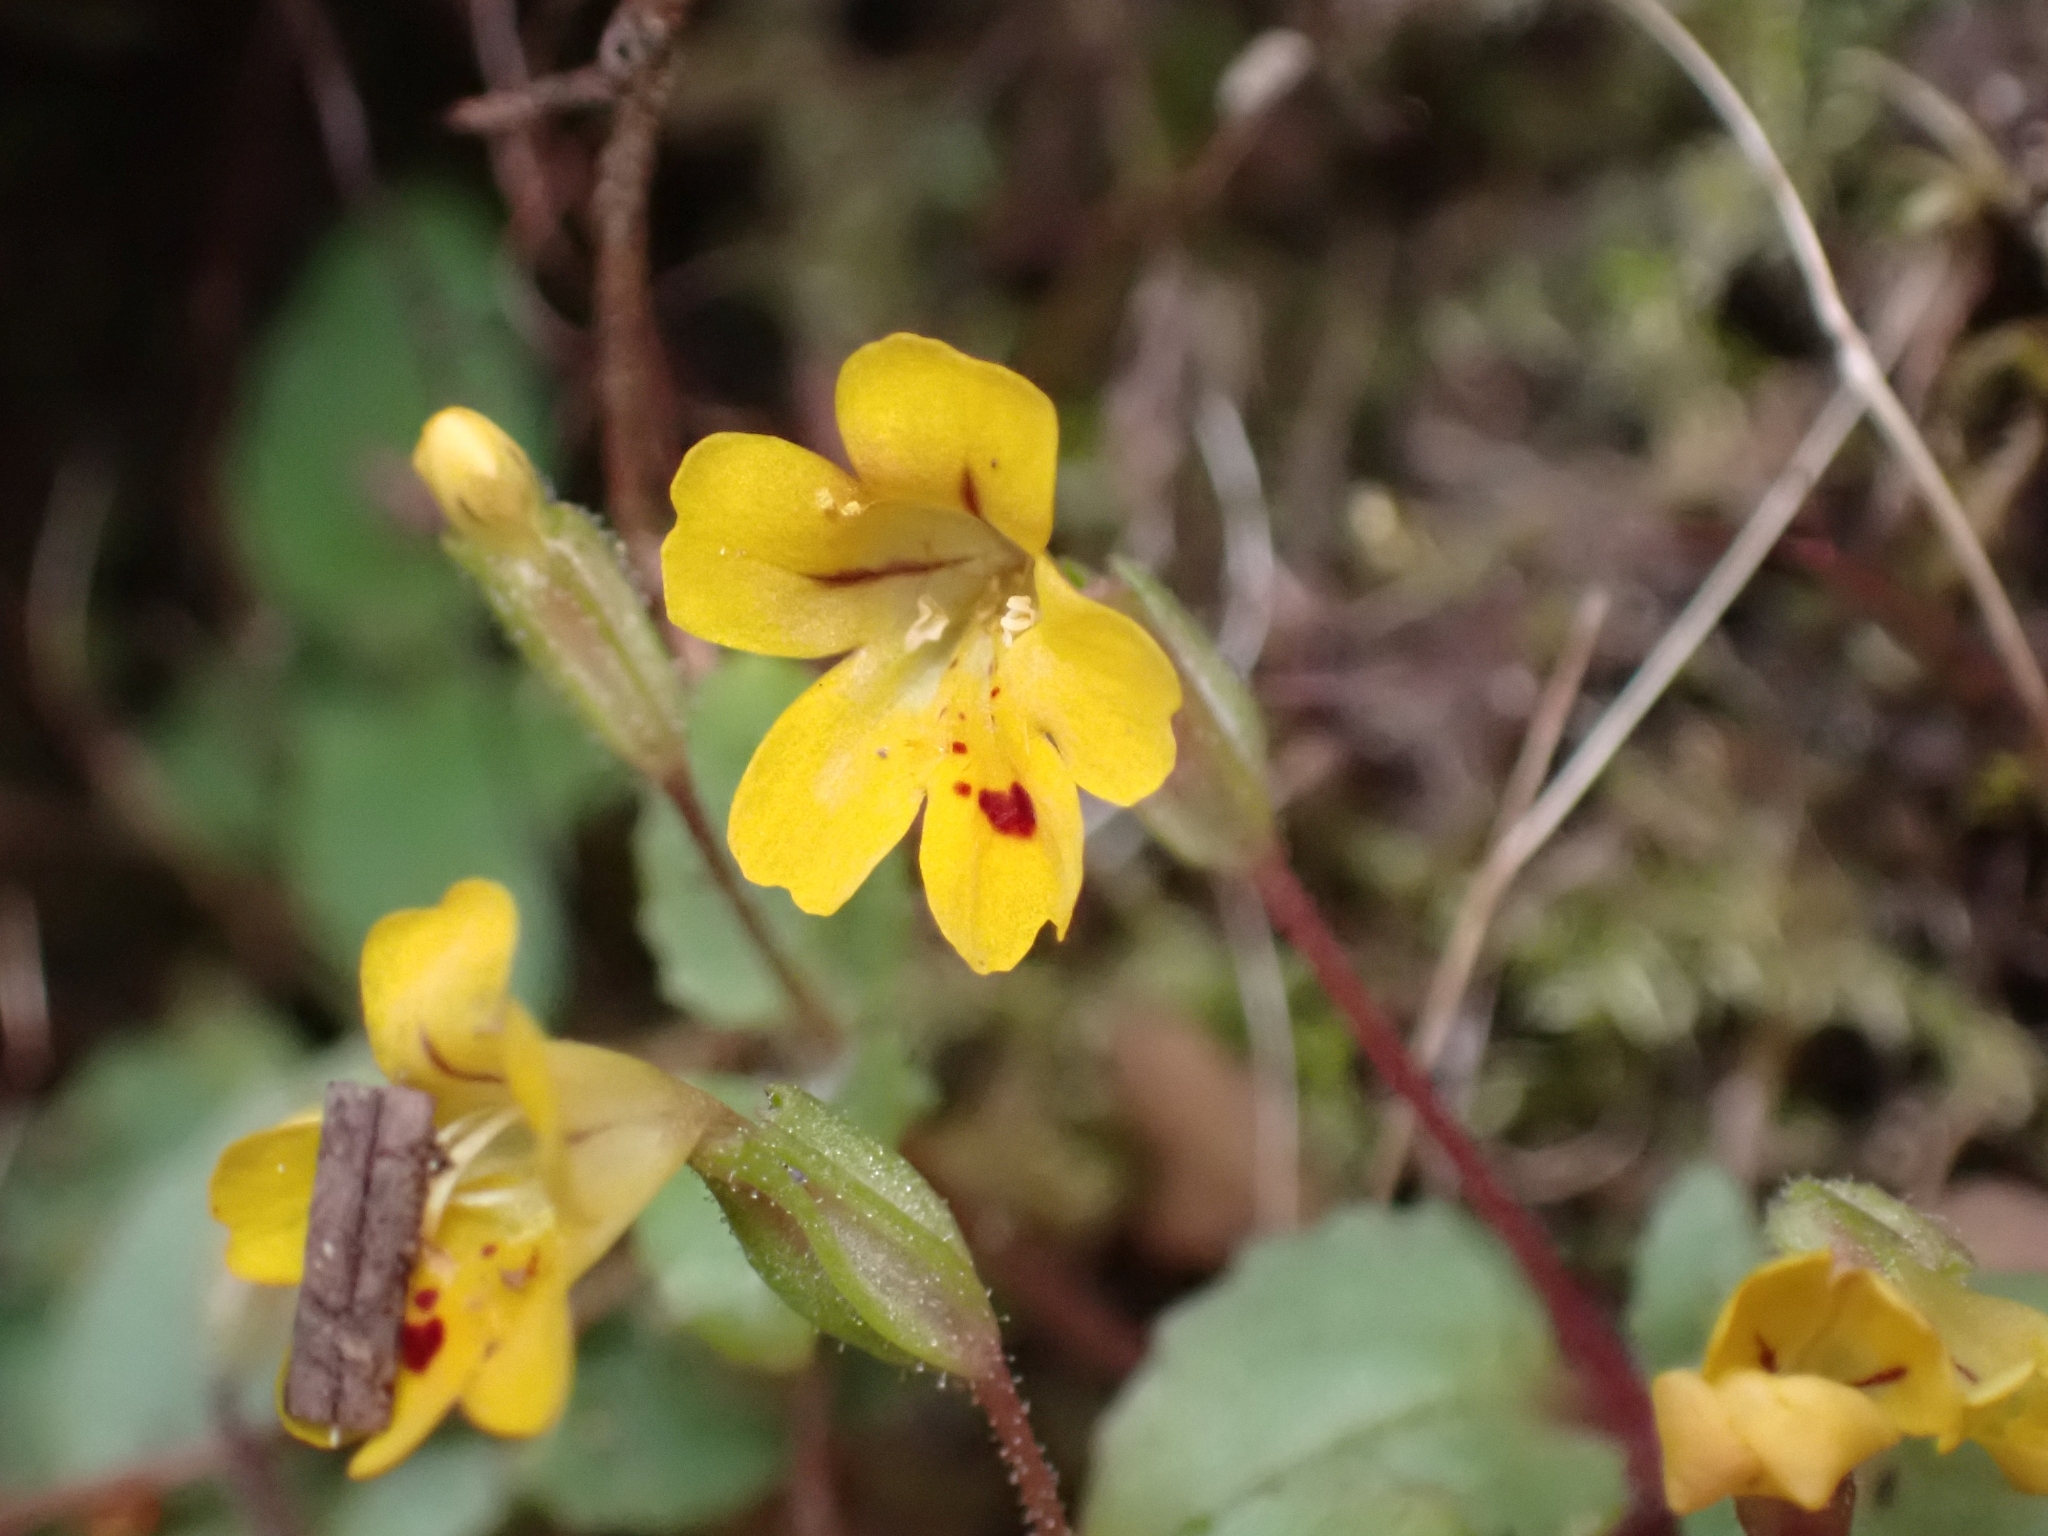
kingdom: Plantae
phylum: Tracheophyta
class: Magnoliopsida
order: Lamiales
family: Phrymaceae
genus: Erythranthe
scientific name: Erythranthe alsinoides
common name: Chickweed monkeyflower
